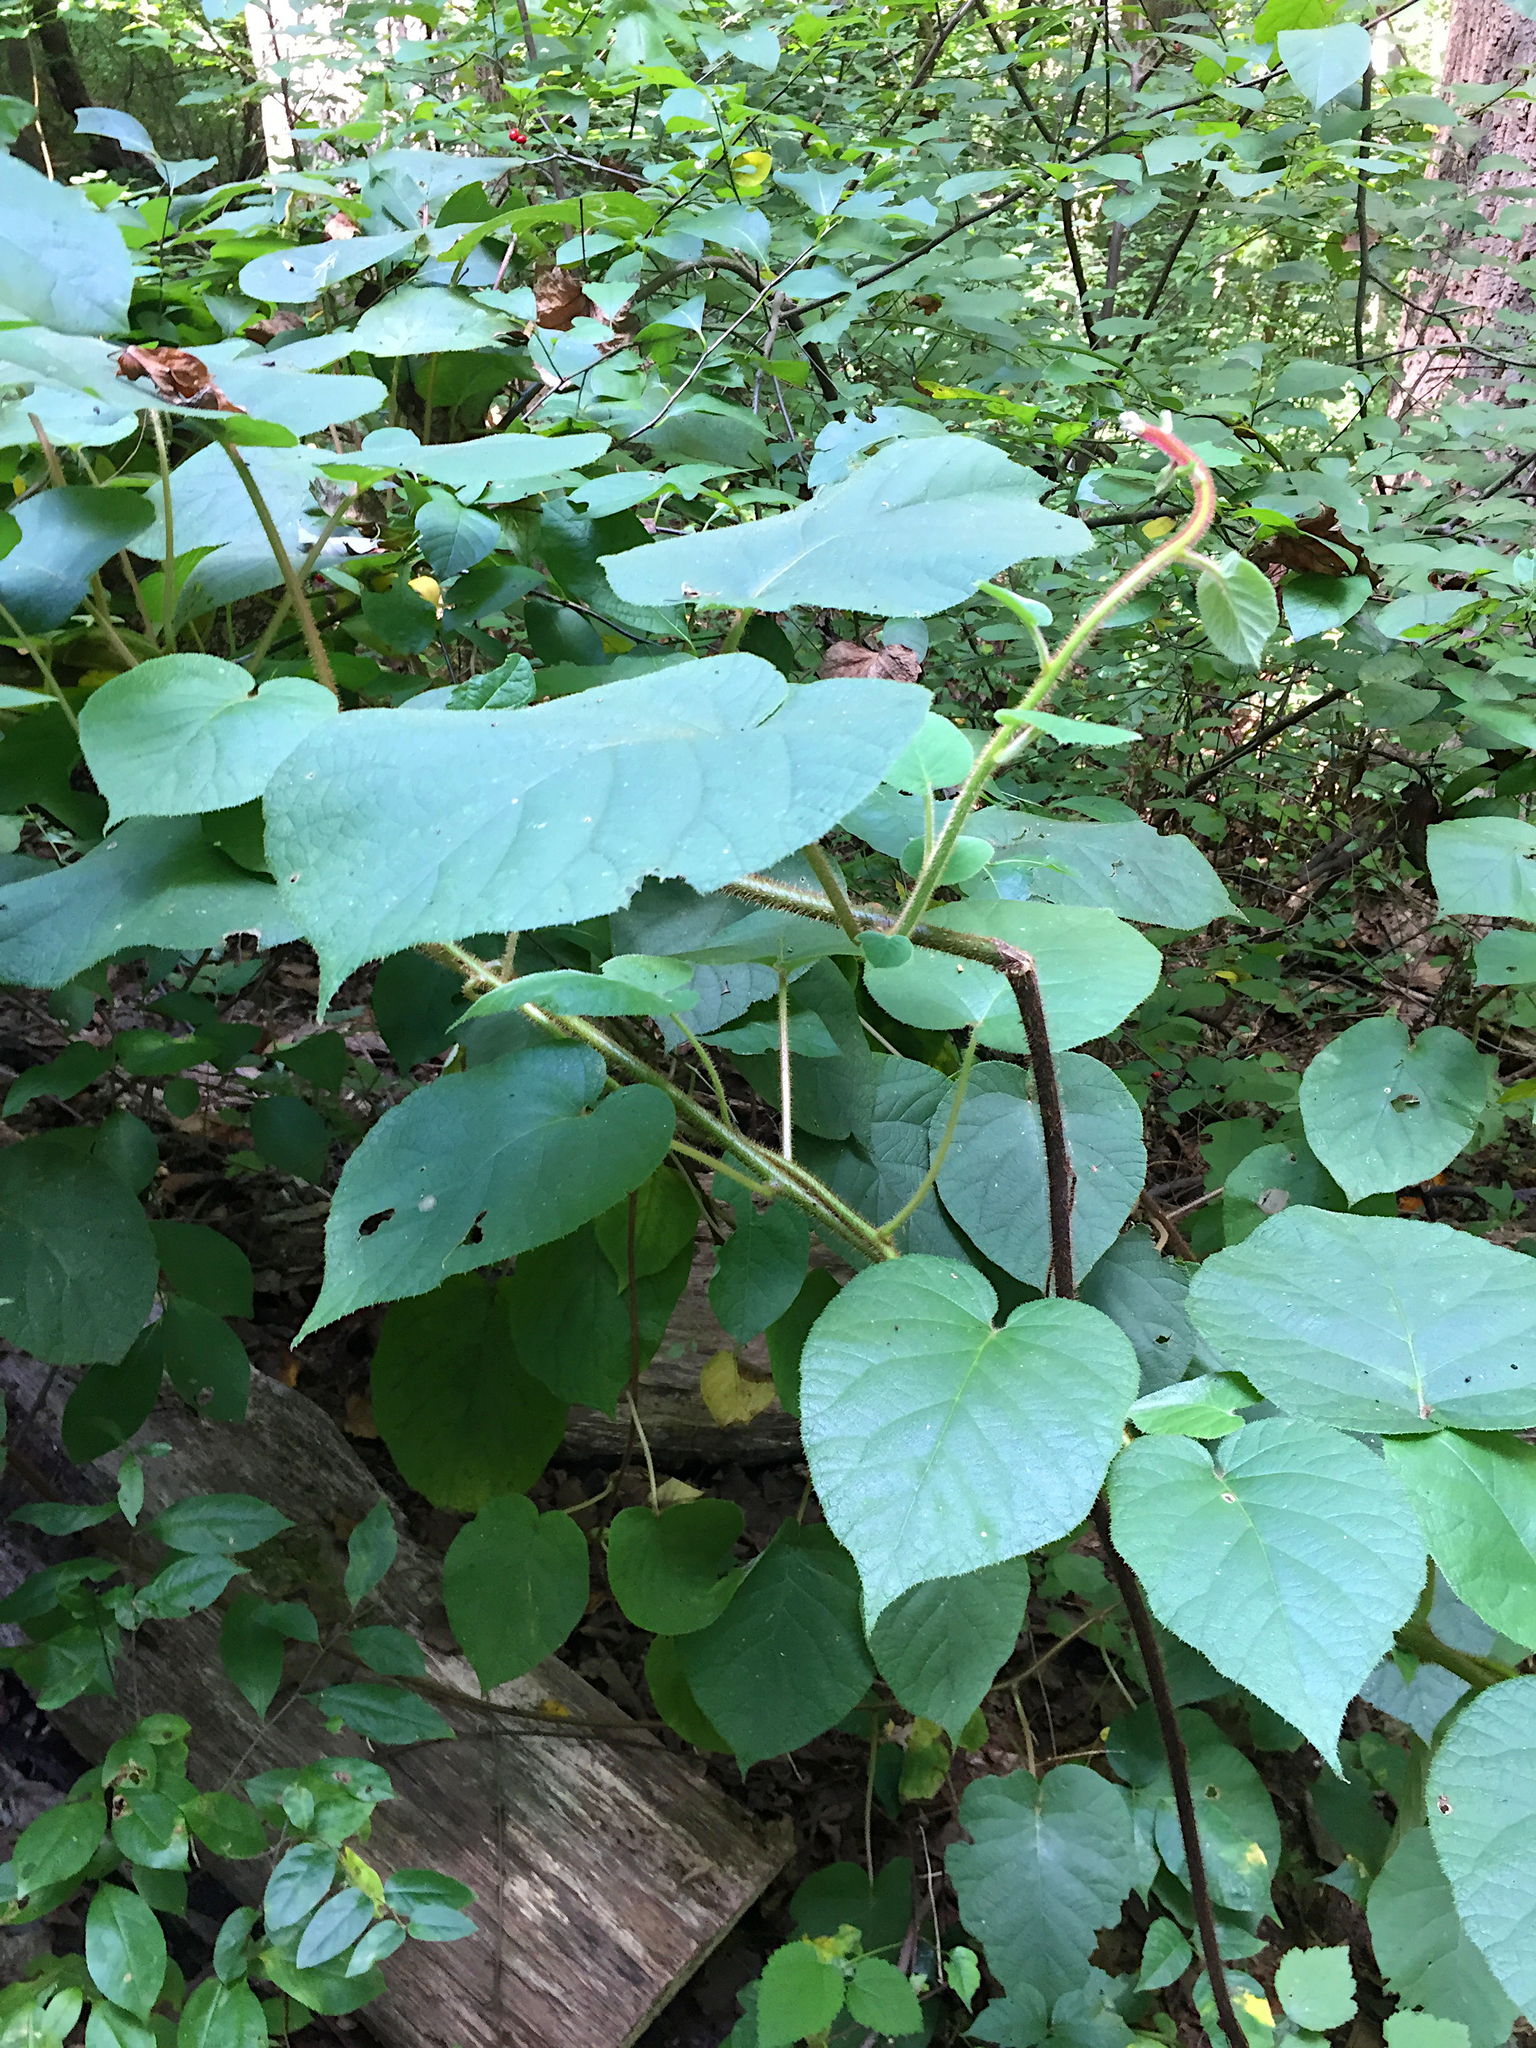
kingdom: Plantae
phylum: Tracheophyta
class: Magnoliopsida
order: Ericales
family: Actinidiaceae
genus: Actinidia
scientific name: Actinidia chinensis
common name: Kiwi
